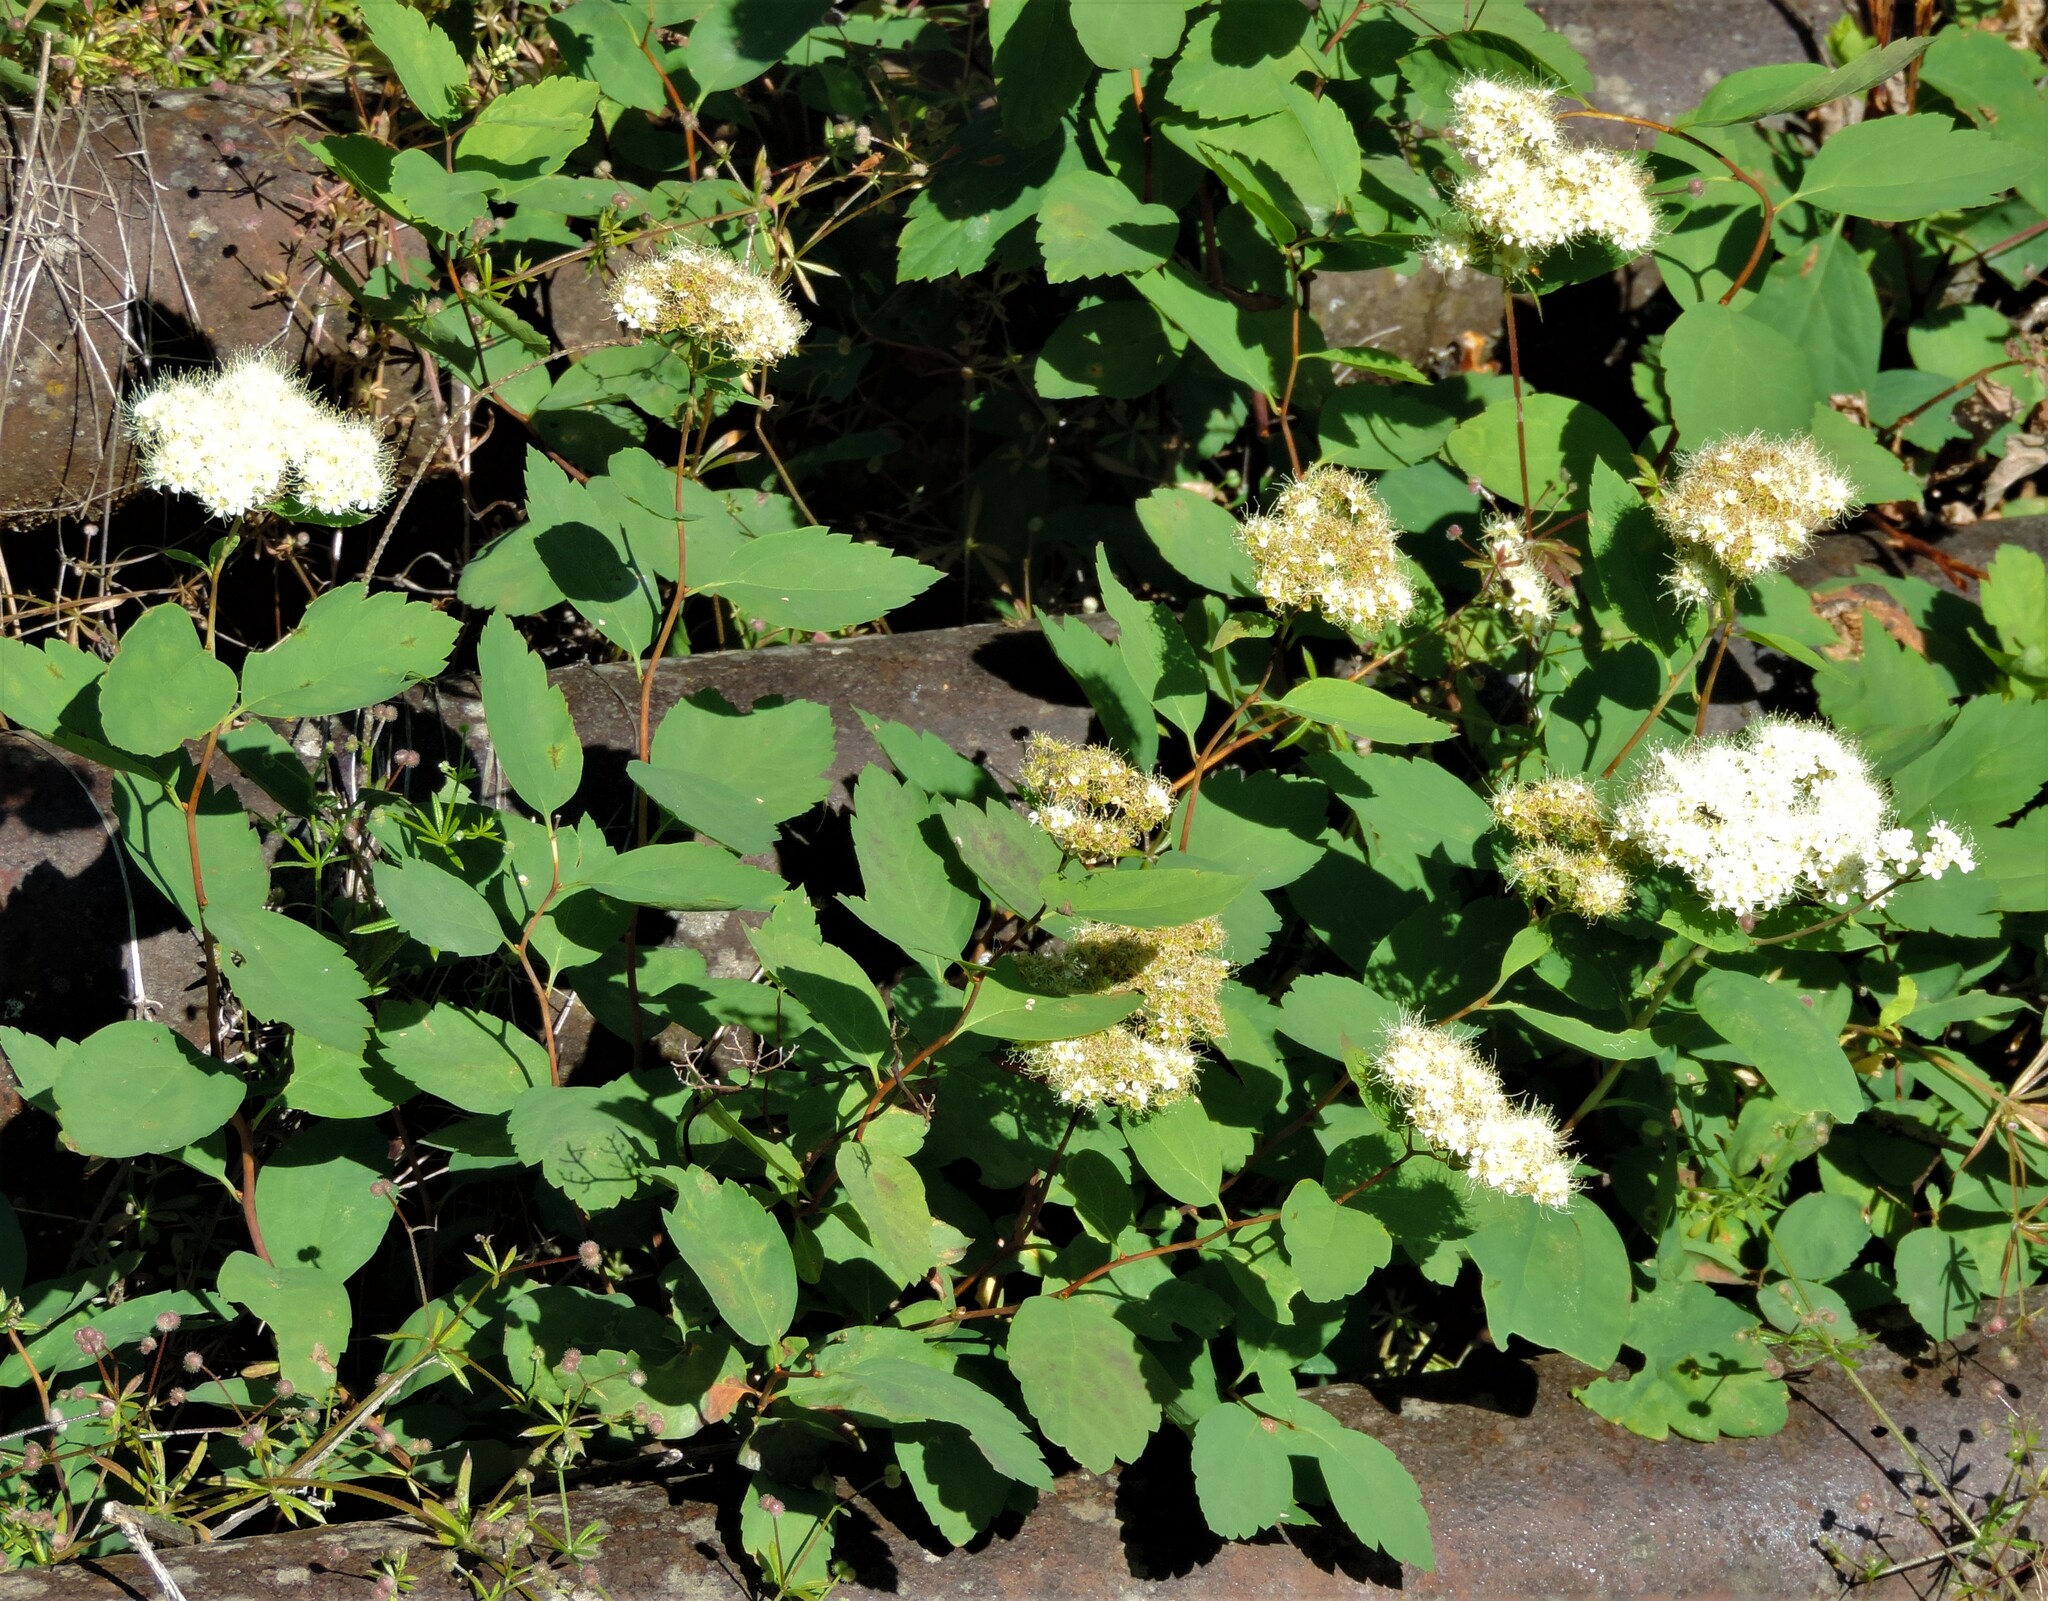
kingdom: Plantae
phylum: Tracheophyta
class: Magnoliopsida
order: Rosales
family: Rosaceae
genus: Spiraea
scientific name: Spiraea lucida
